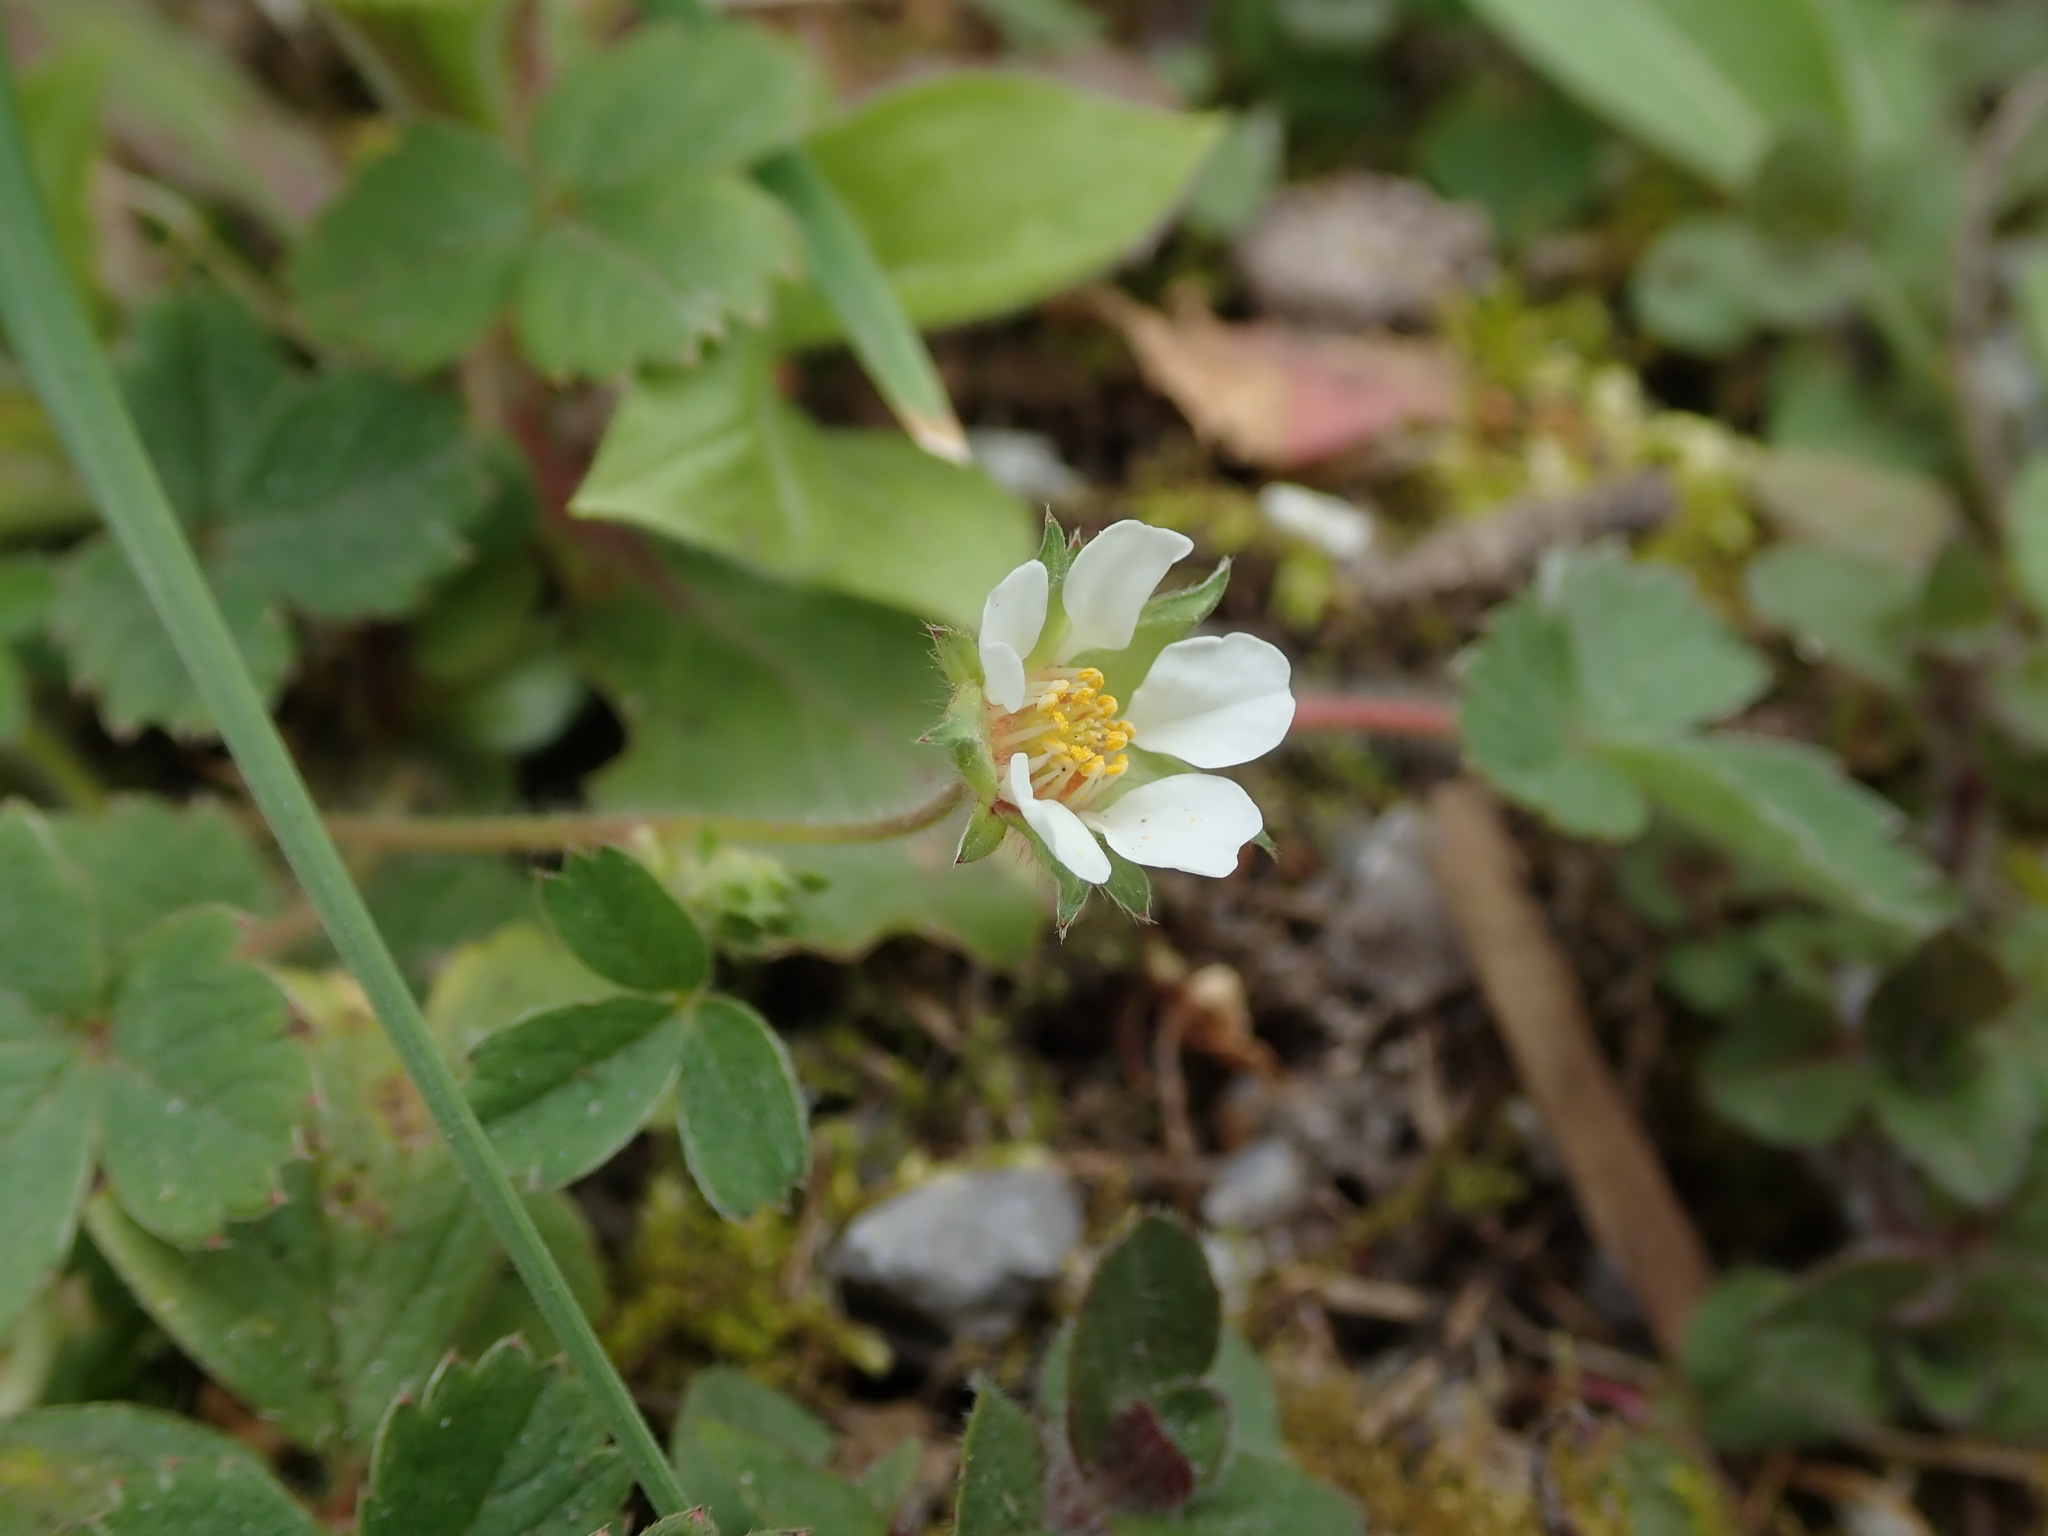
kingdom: Plantae
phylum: Tracheophyta
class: Magnoliopsida
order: Rosales
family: Rosaceae
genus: Potentilla
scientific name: Potentilla sterilis
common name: Barren strawberry
